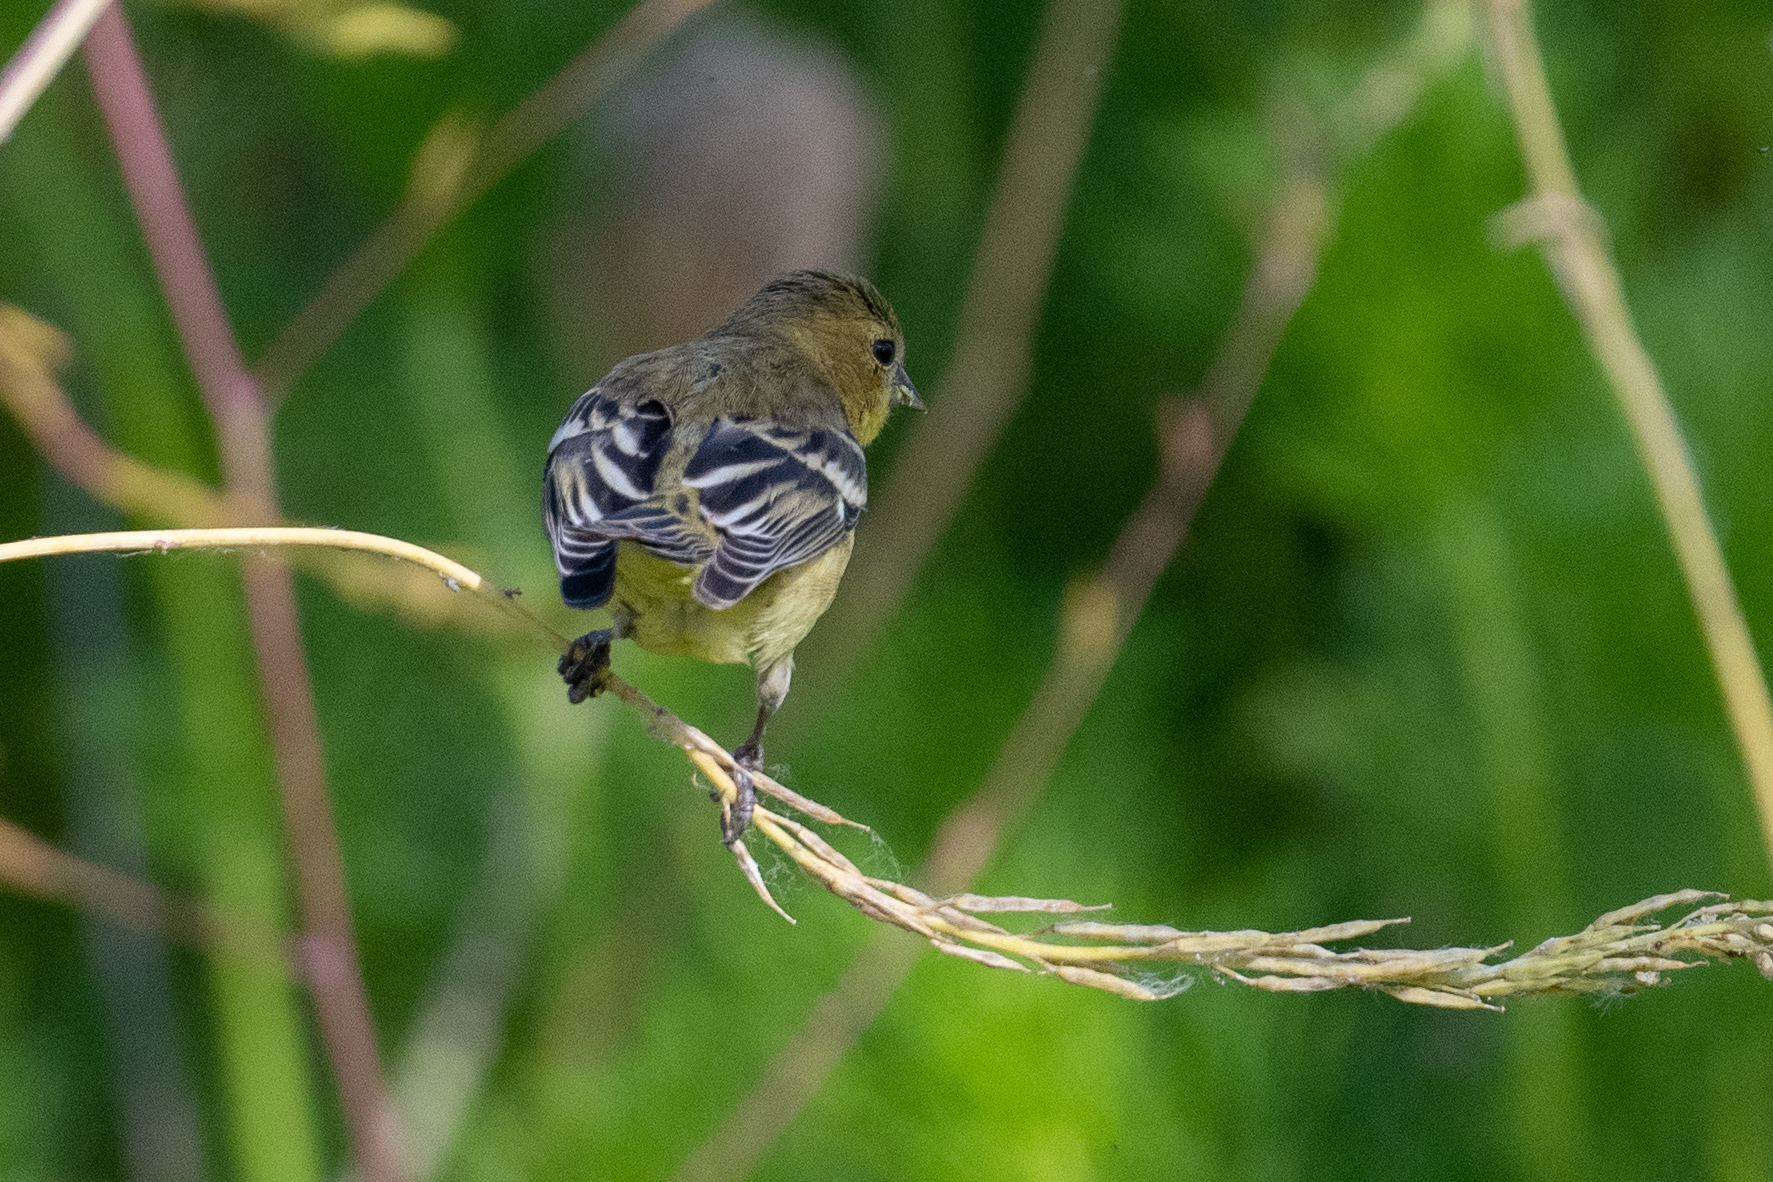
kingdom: Animalia
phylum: Chordata
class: Aves
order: Passeriformes
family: Fringillidae
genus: Spinus
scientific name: Spinus psaltria
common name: Lesser goldfinch
